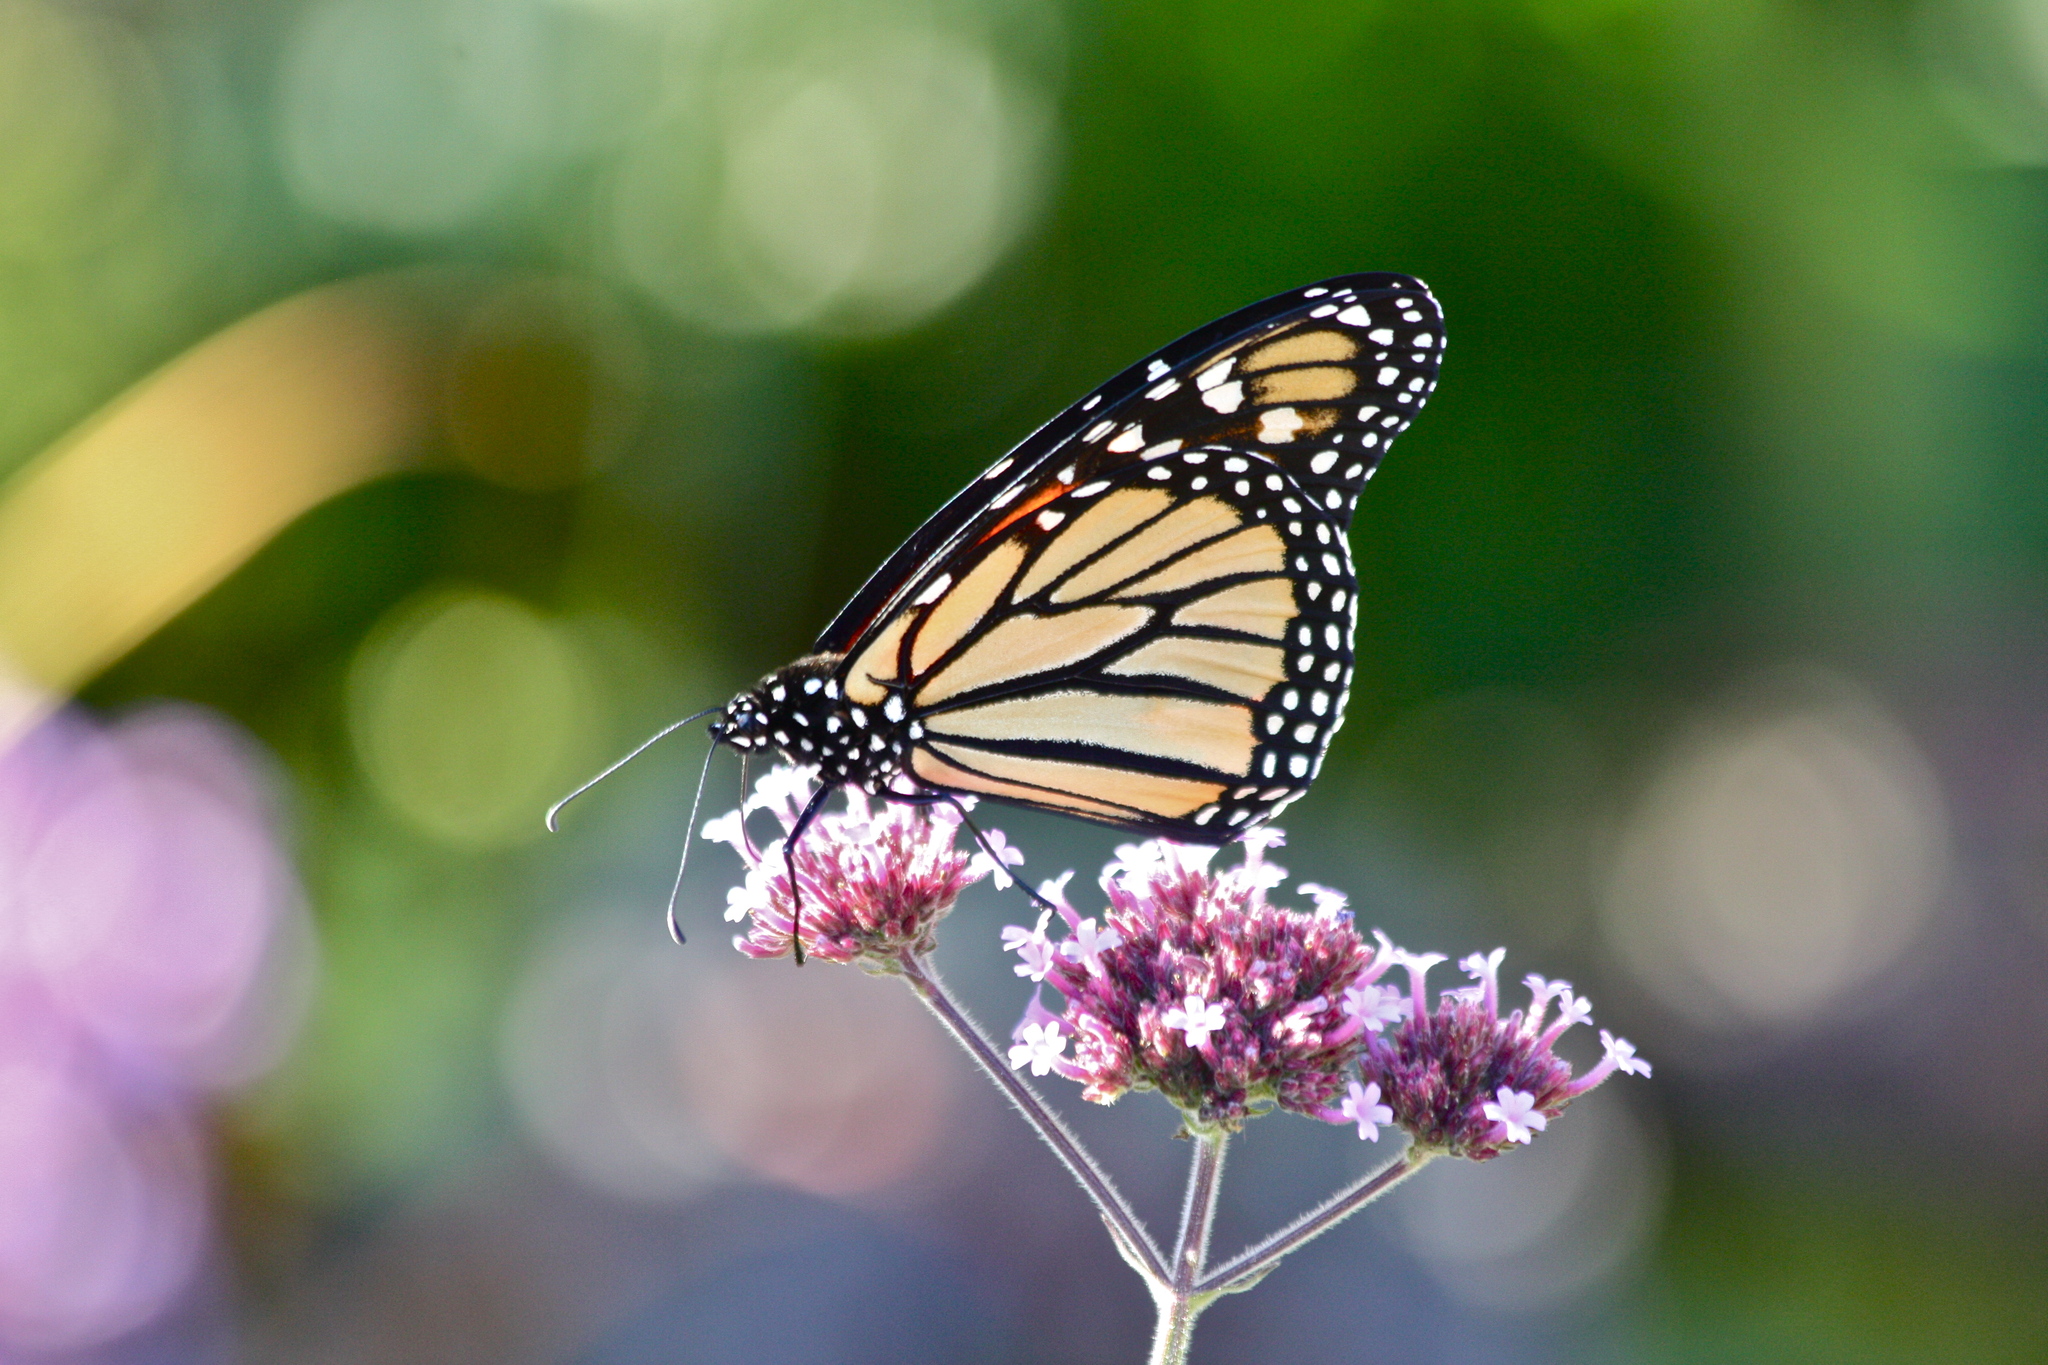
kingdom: Animalia
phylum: Arthropoda
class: Insecta
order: Lepidoptera
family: Nymphalidae
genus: Danaus
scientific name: Danaus plexippus
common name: Monarch
